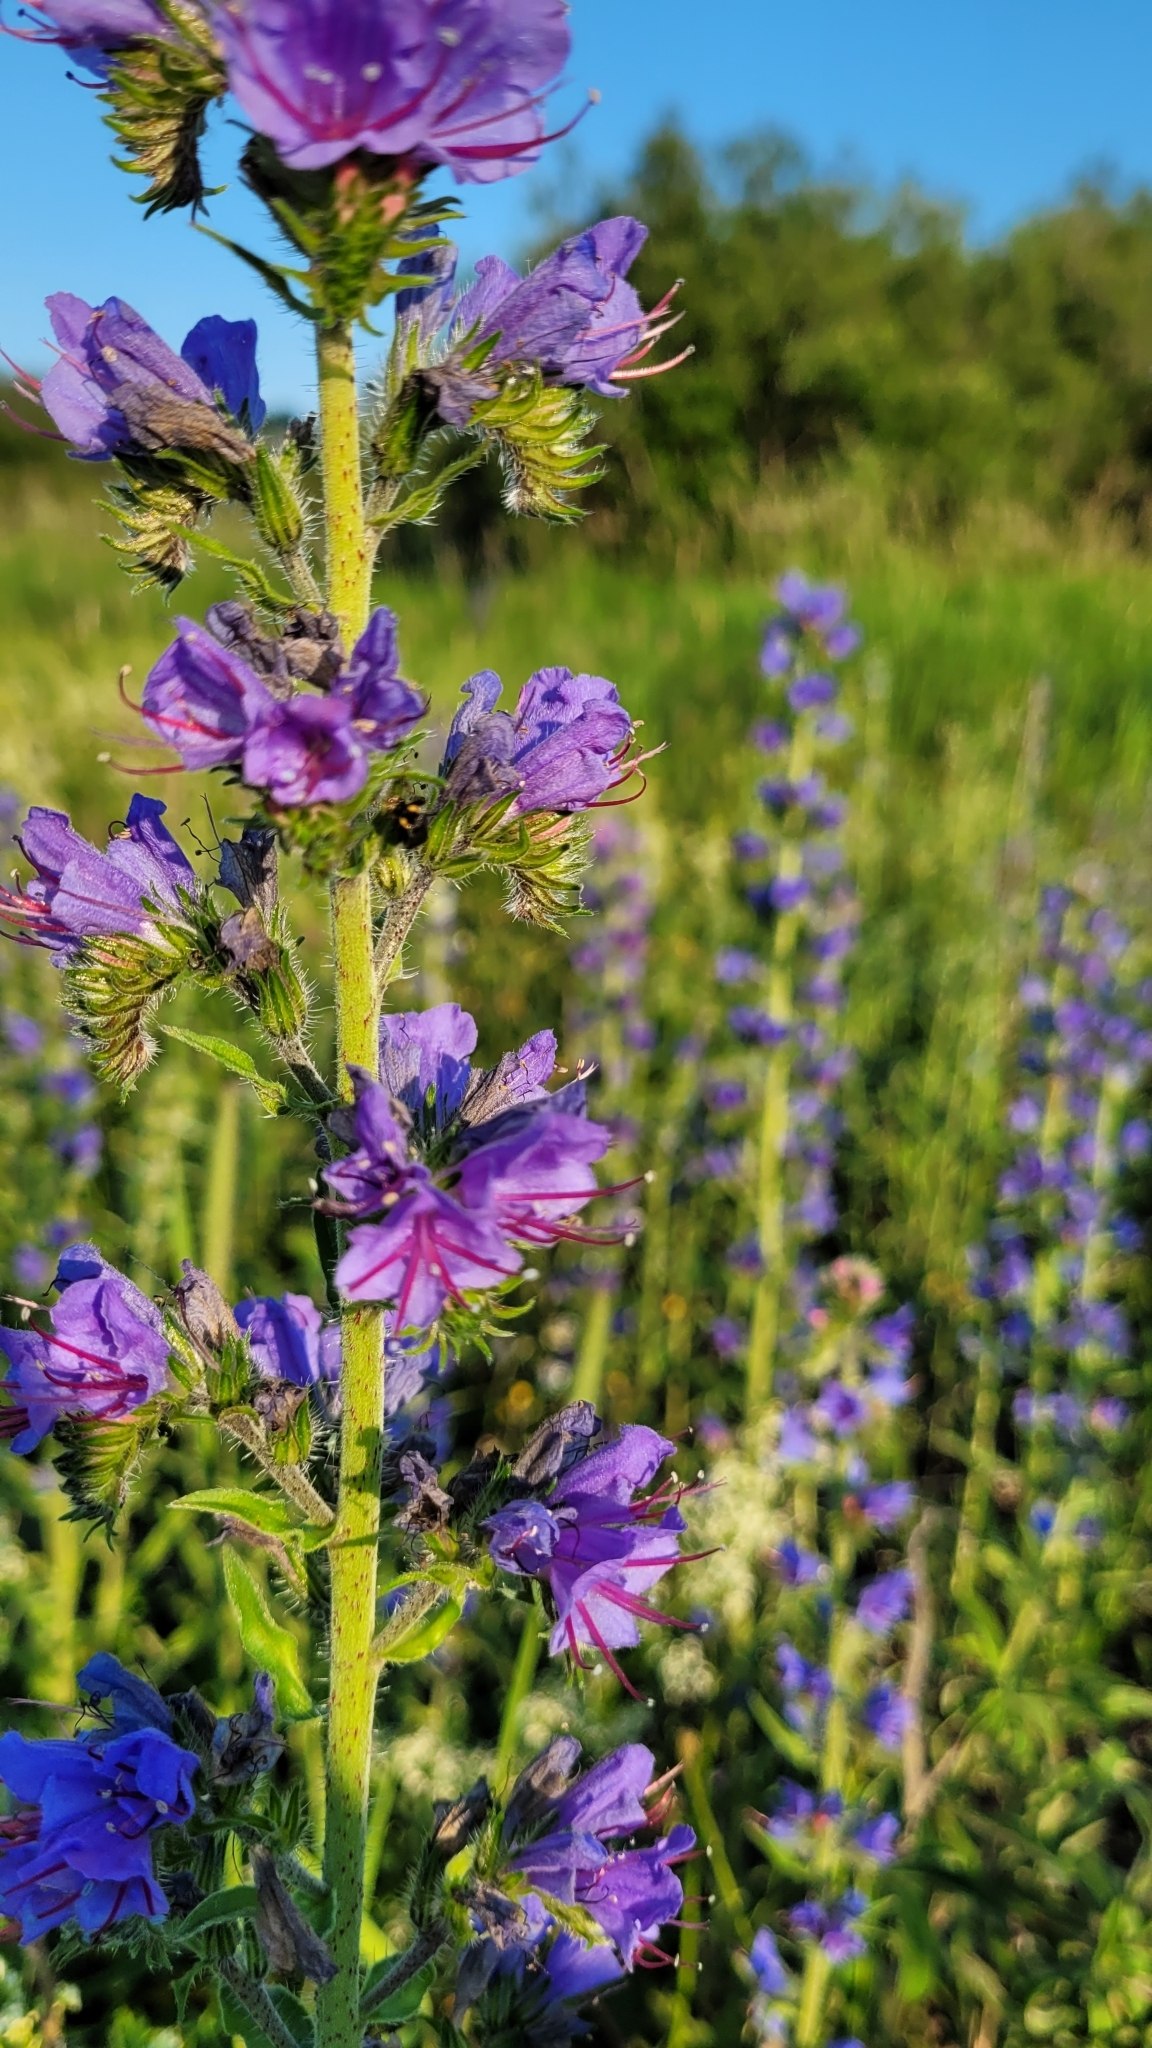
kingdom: Plantae
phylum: Tracheophyta
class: Magnoliopsida
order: Boraginales
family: Boraginaceae
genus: Echium
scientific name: Echium vulgare
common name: Common viper's bugloss
